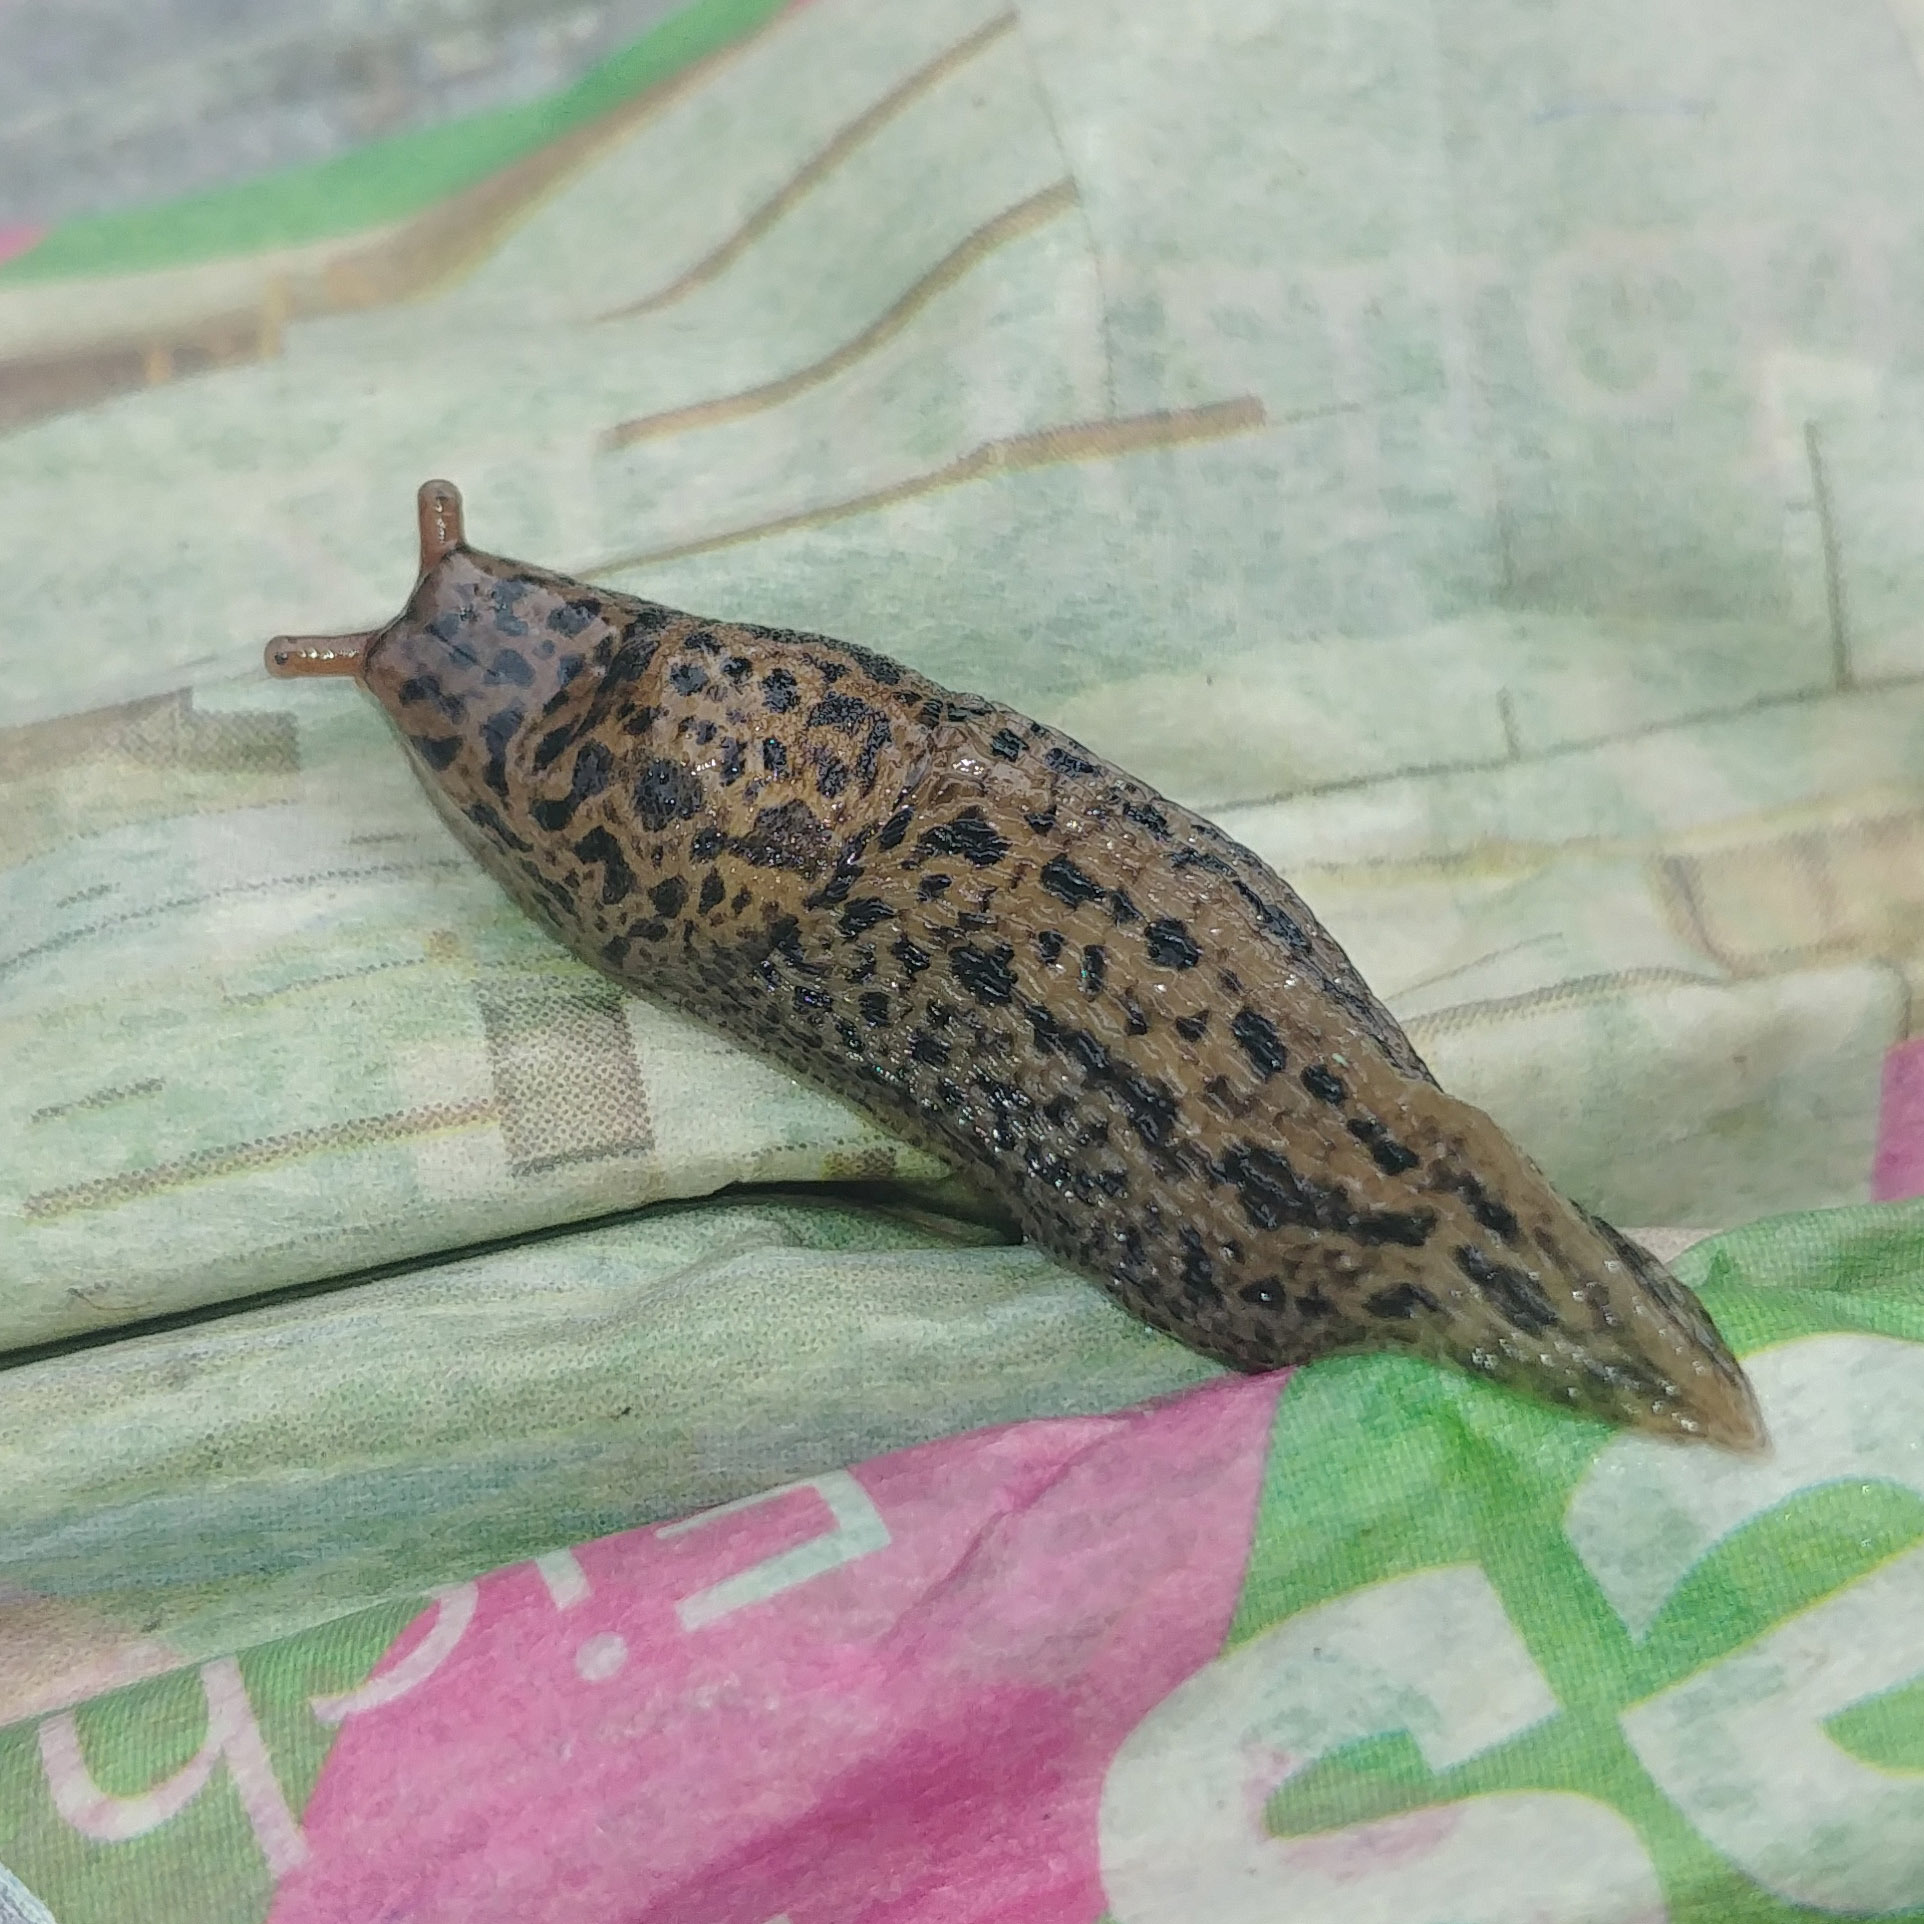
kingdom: Animalia
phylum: Mollusca
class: Gastropoda
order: Stylommatophora
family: Limacidae
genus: Limax
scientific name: Limax maximus
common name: Great grey slug
